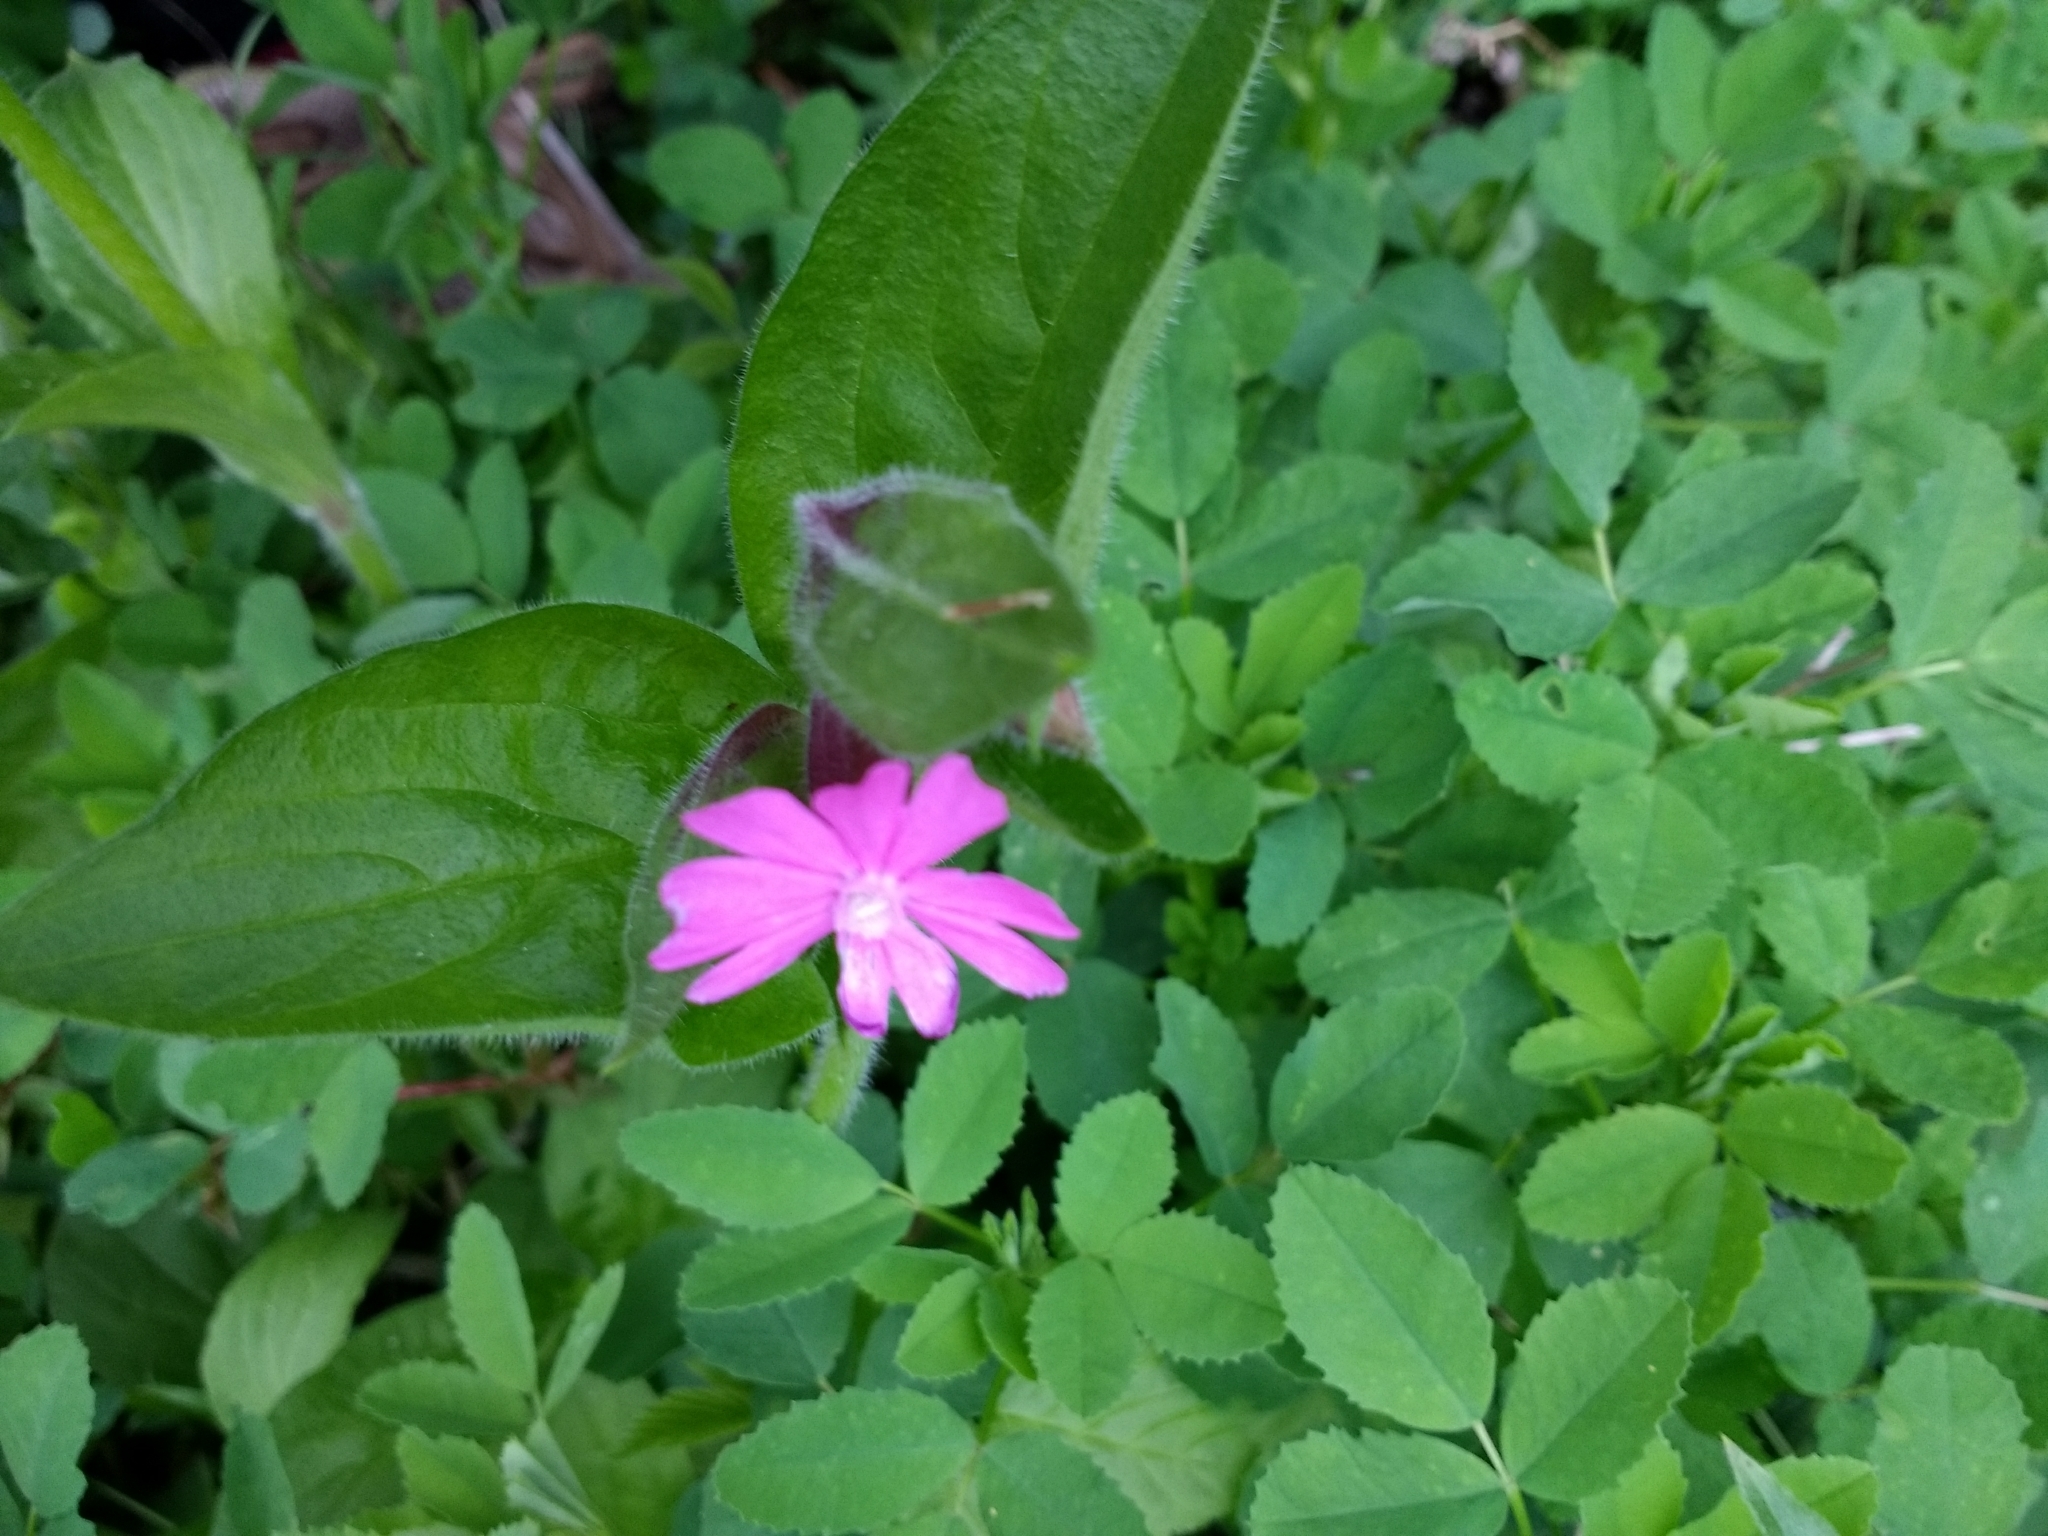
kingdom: Plantae
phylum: Tracheophyta
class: Magnoliopsida
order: Caryophyllales
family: Caryophyllaceae
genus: Silene
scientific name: Silene dioica
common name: Red campion
